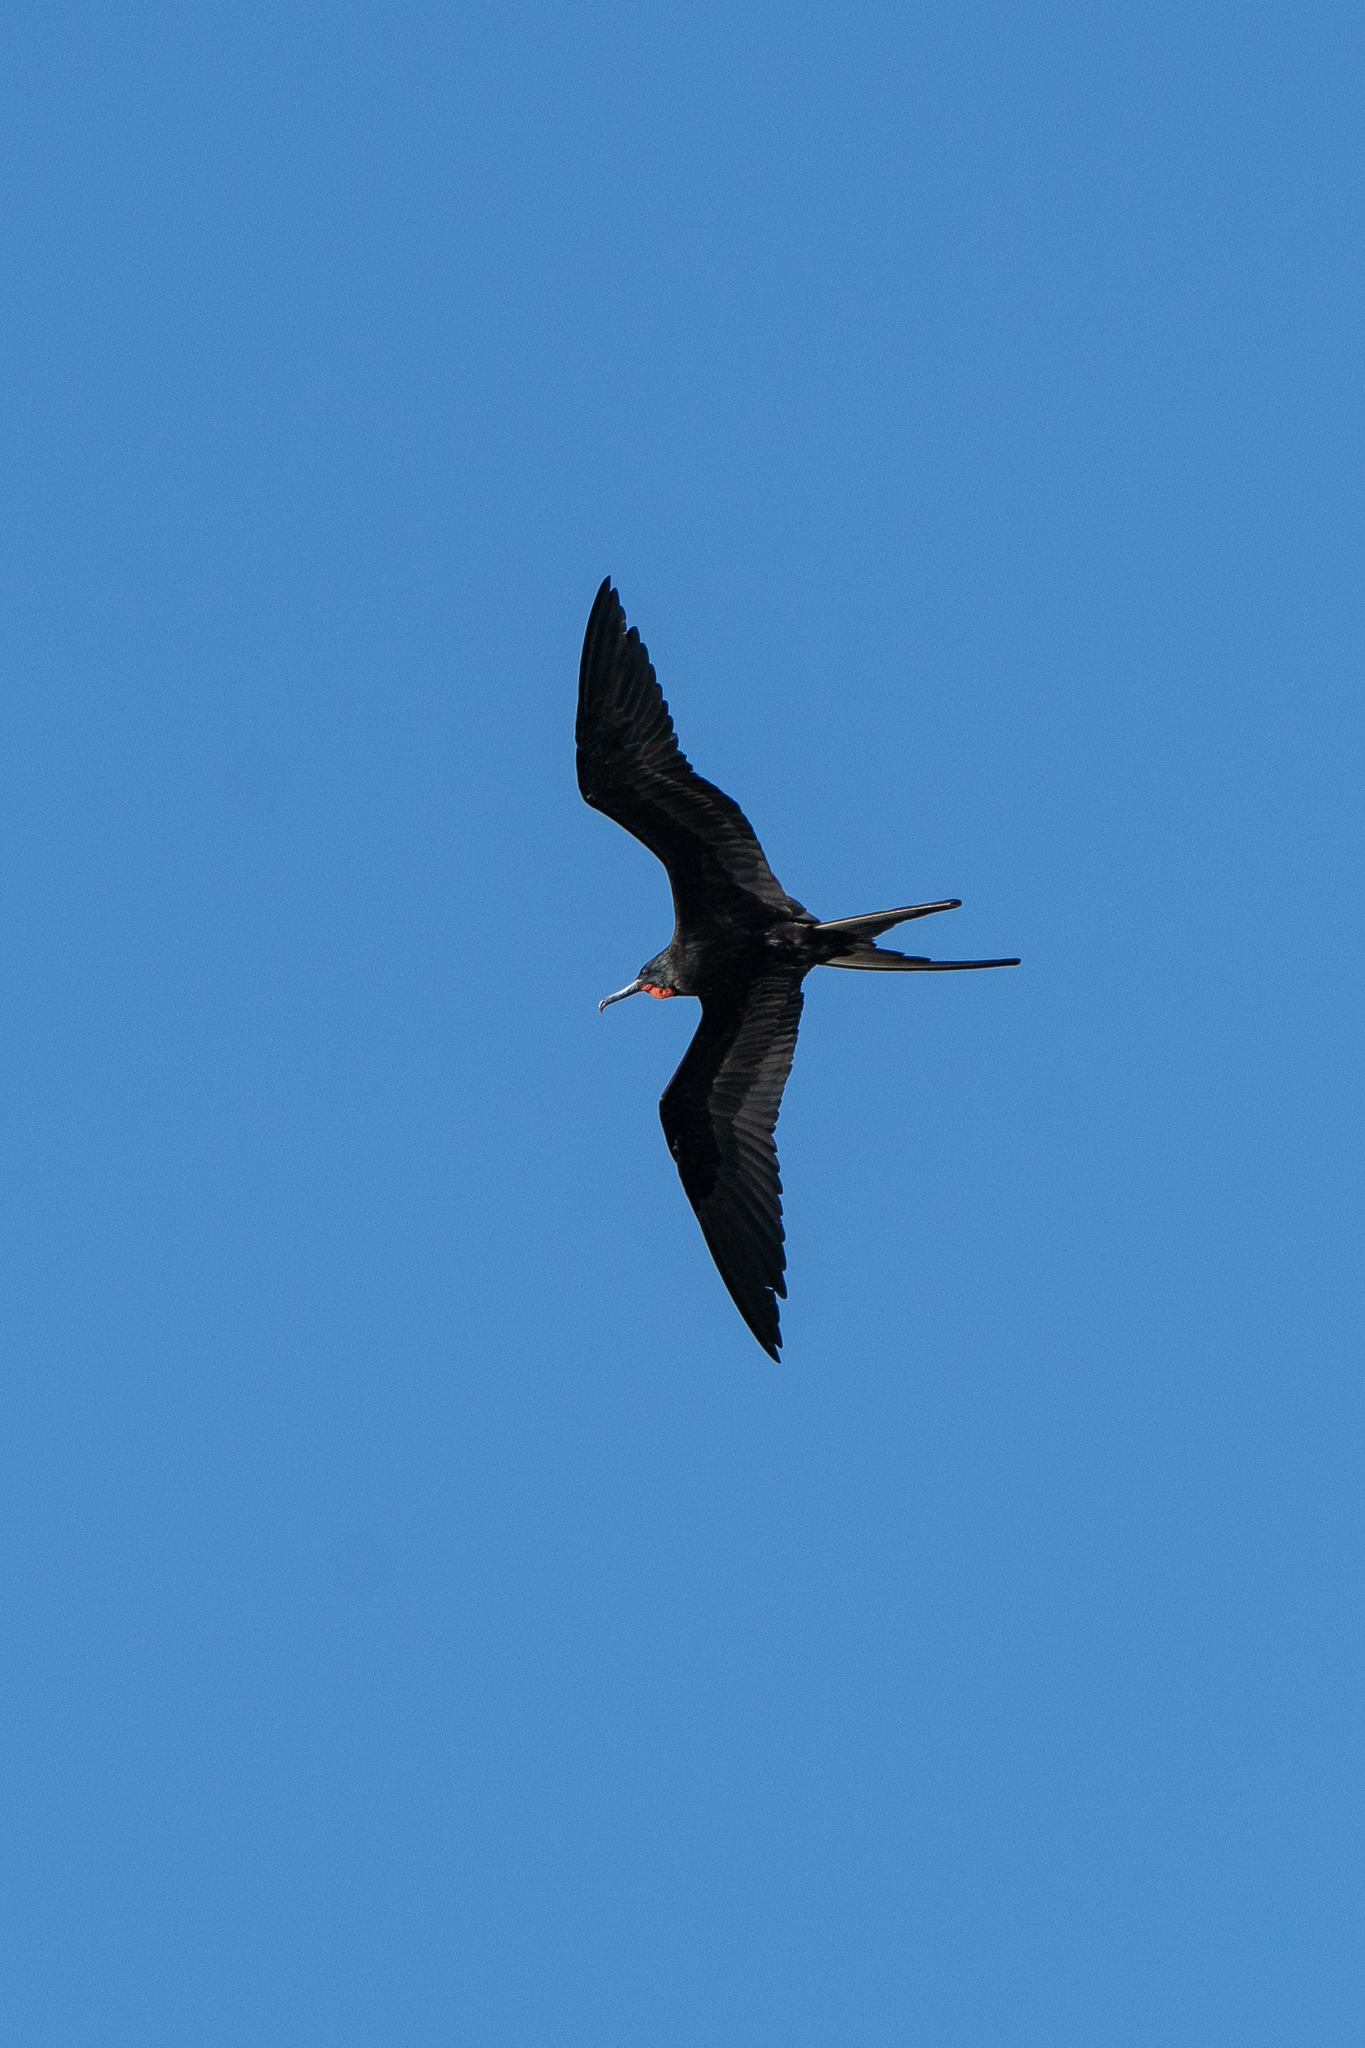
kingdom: Animalia
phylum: Chordata
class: Aves
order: Suliformes
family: Fregatidae
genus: Fregata
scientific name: Fregata magnificens
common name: Magnificent frigatebird
